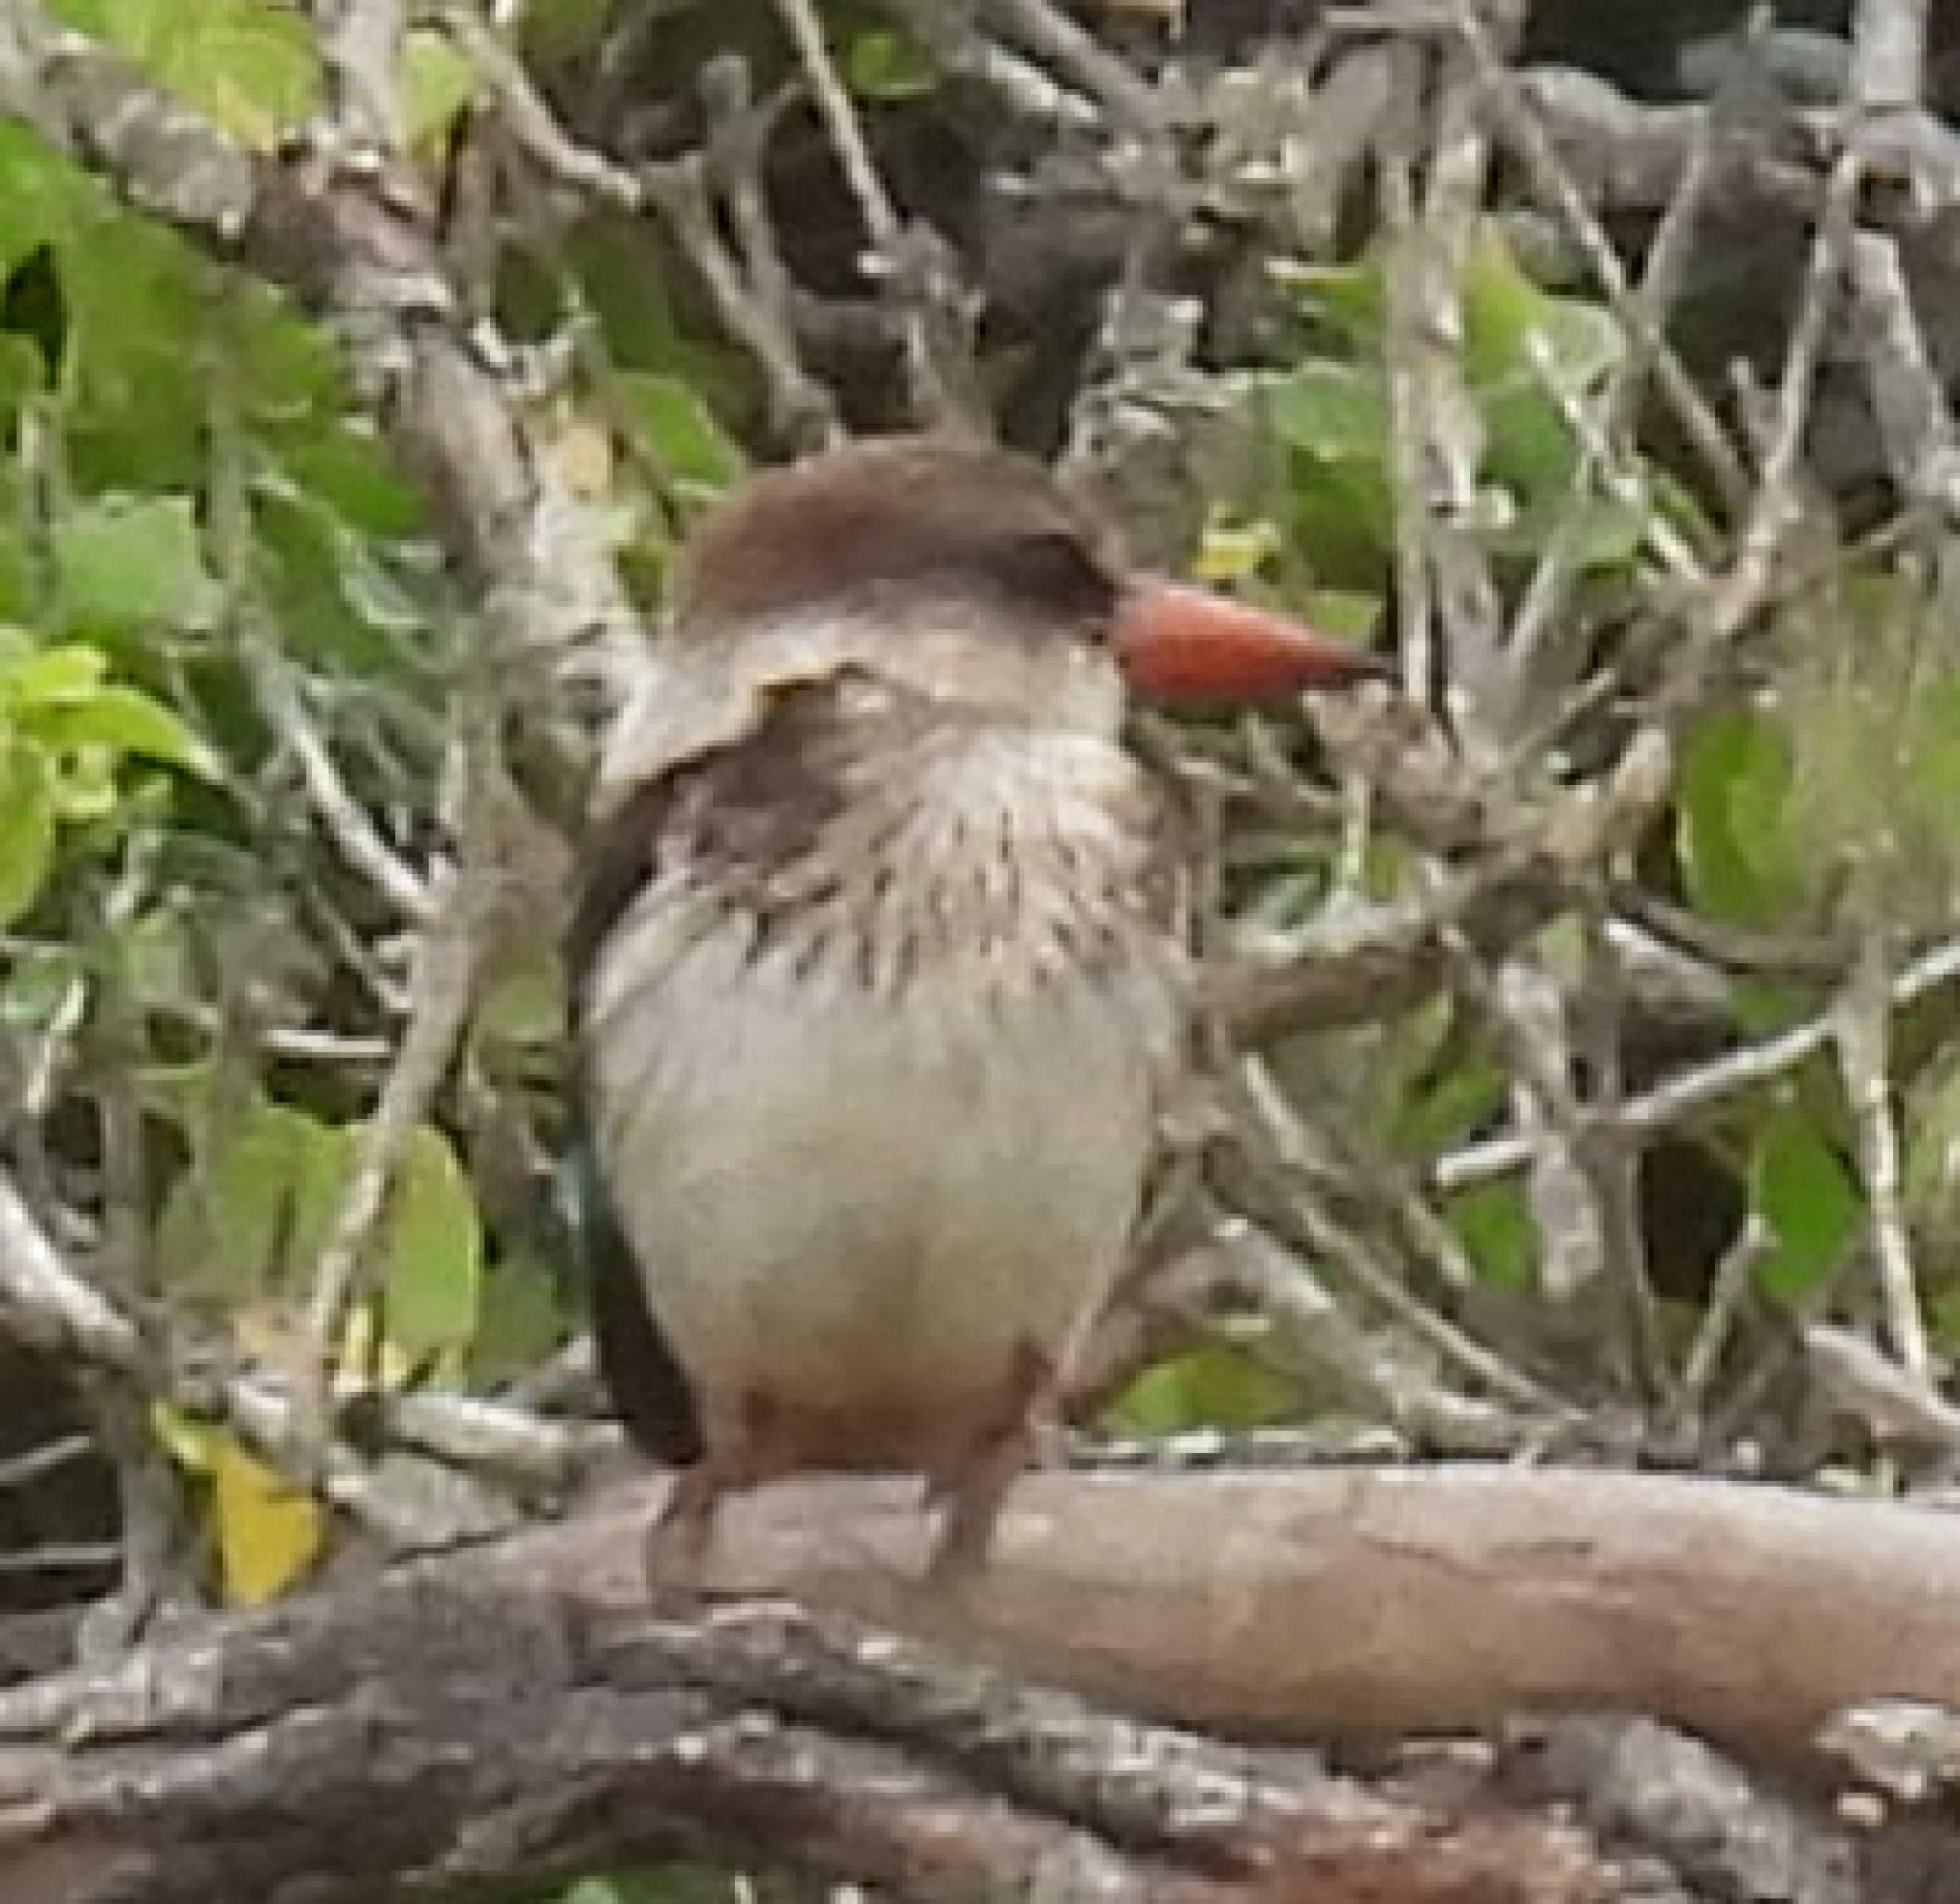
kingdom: Animalia
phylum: Chordata
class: Aves
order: Coraciiformes
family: Alcedinidae
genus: Halcyon
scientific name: Halcyon albiventris
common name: Brown-hooded kingfisher
